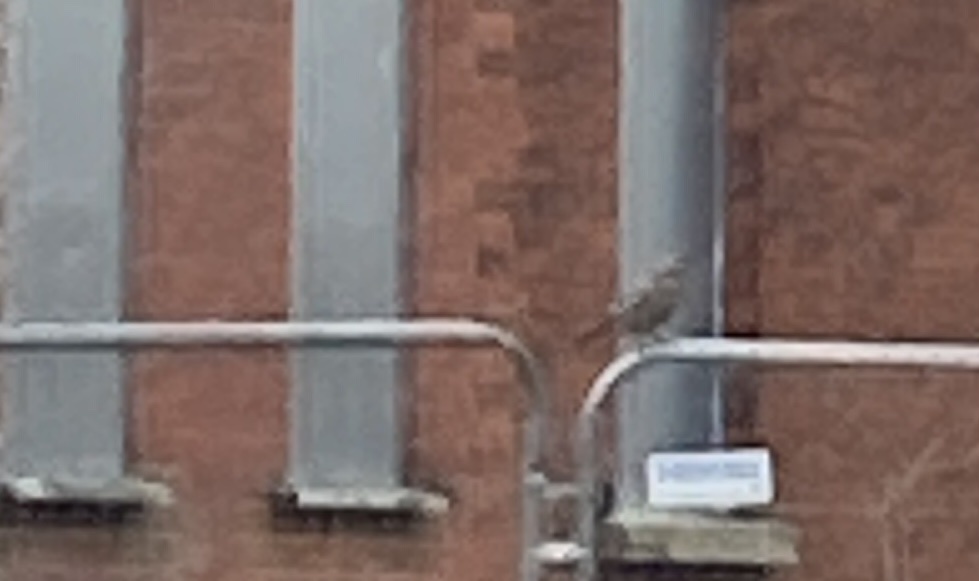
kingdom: Animalia
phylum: Chordata
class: Aves
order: Passeriformes
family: Corvidae
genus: Garrulus
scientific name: Garrulus glandarius
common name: Eurasian jay
